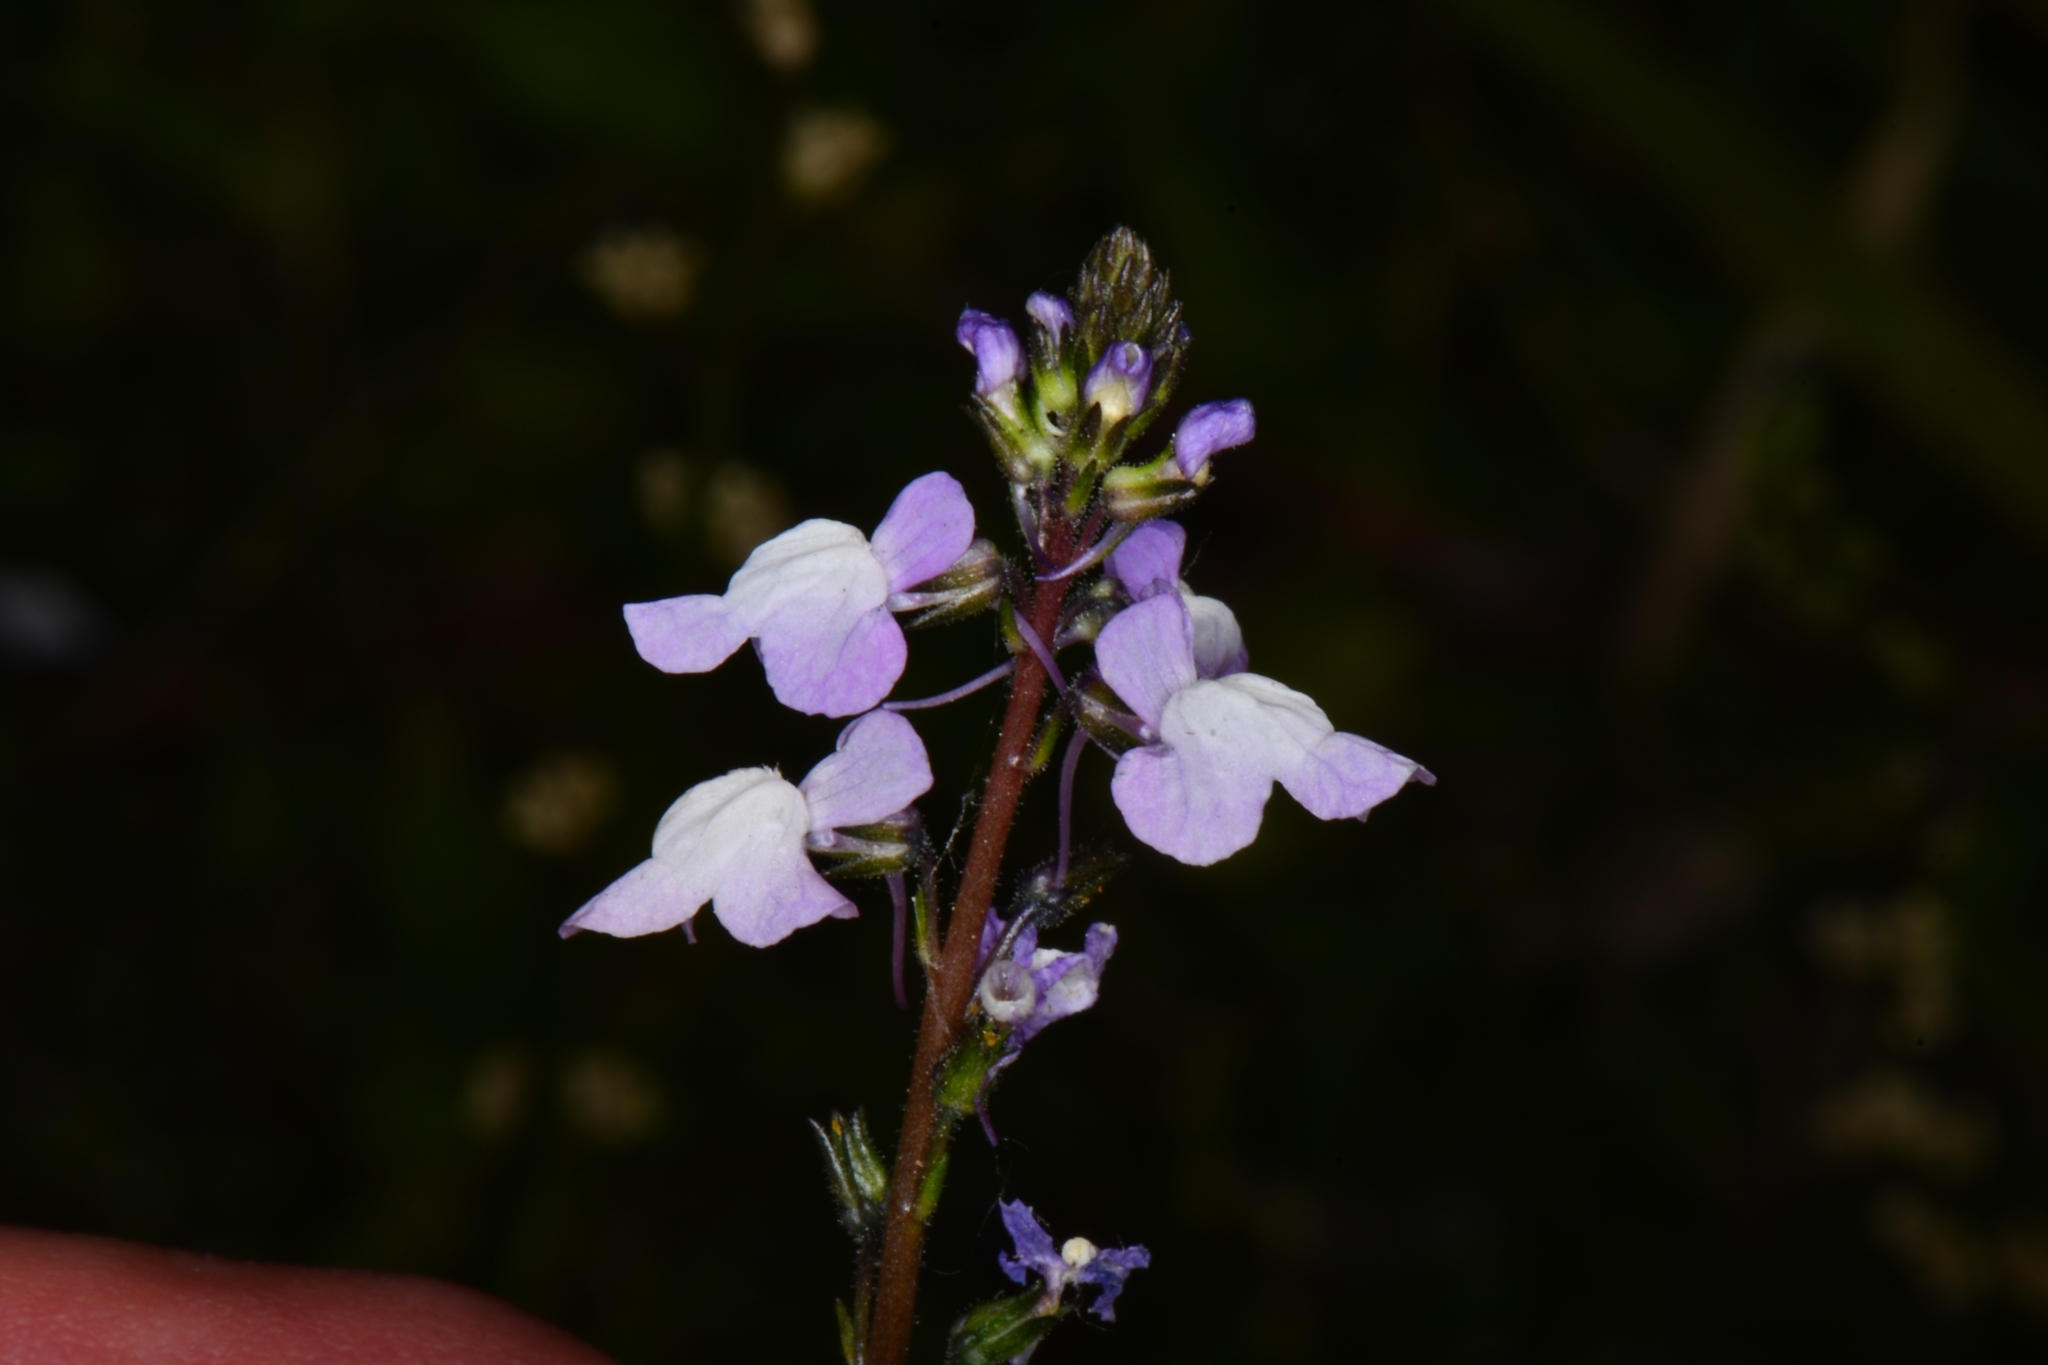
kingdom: Plantae
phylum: Tracheophyta
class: Magnoliopsida
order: Lamiales
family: Plantaginaceae
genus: Nuttallanthus
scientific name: Nuttallanthus canadensis
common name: Blue toadflax
